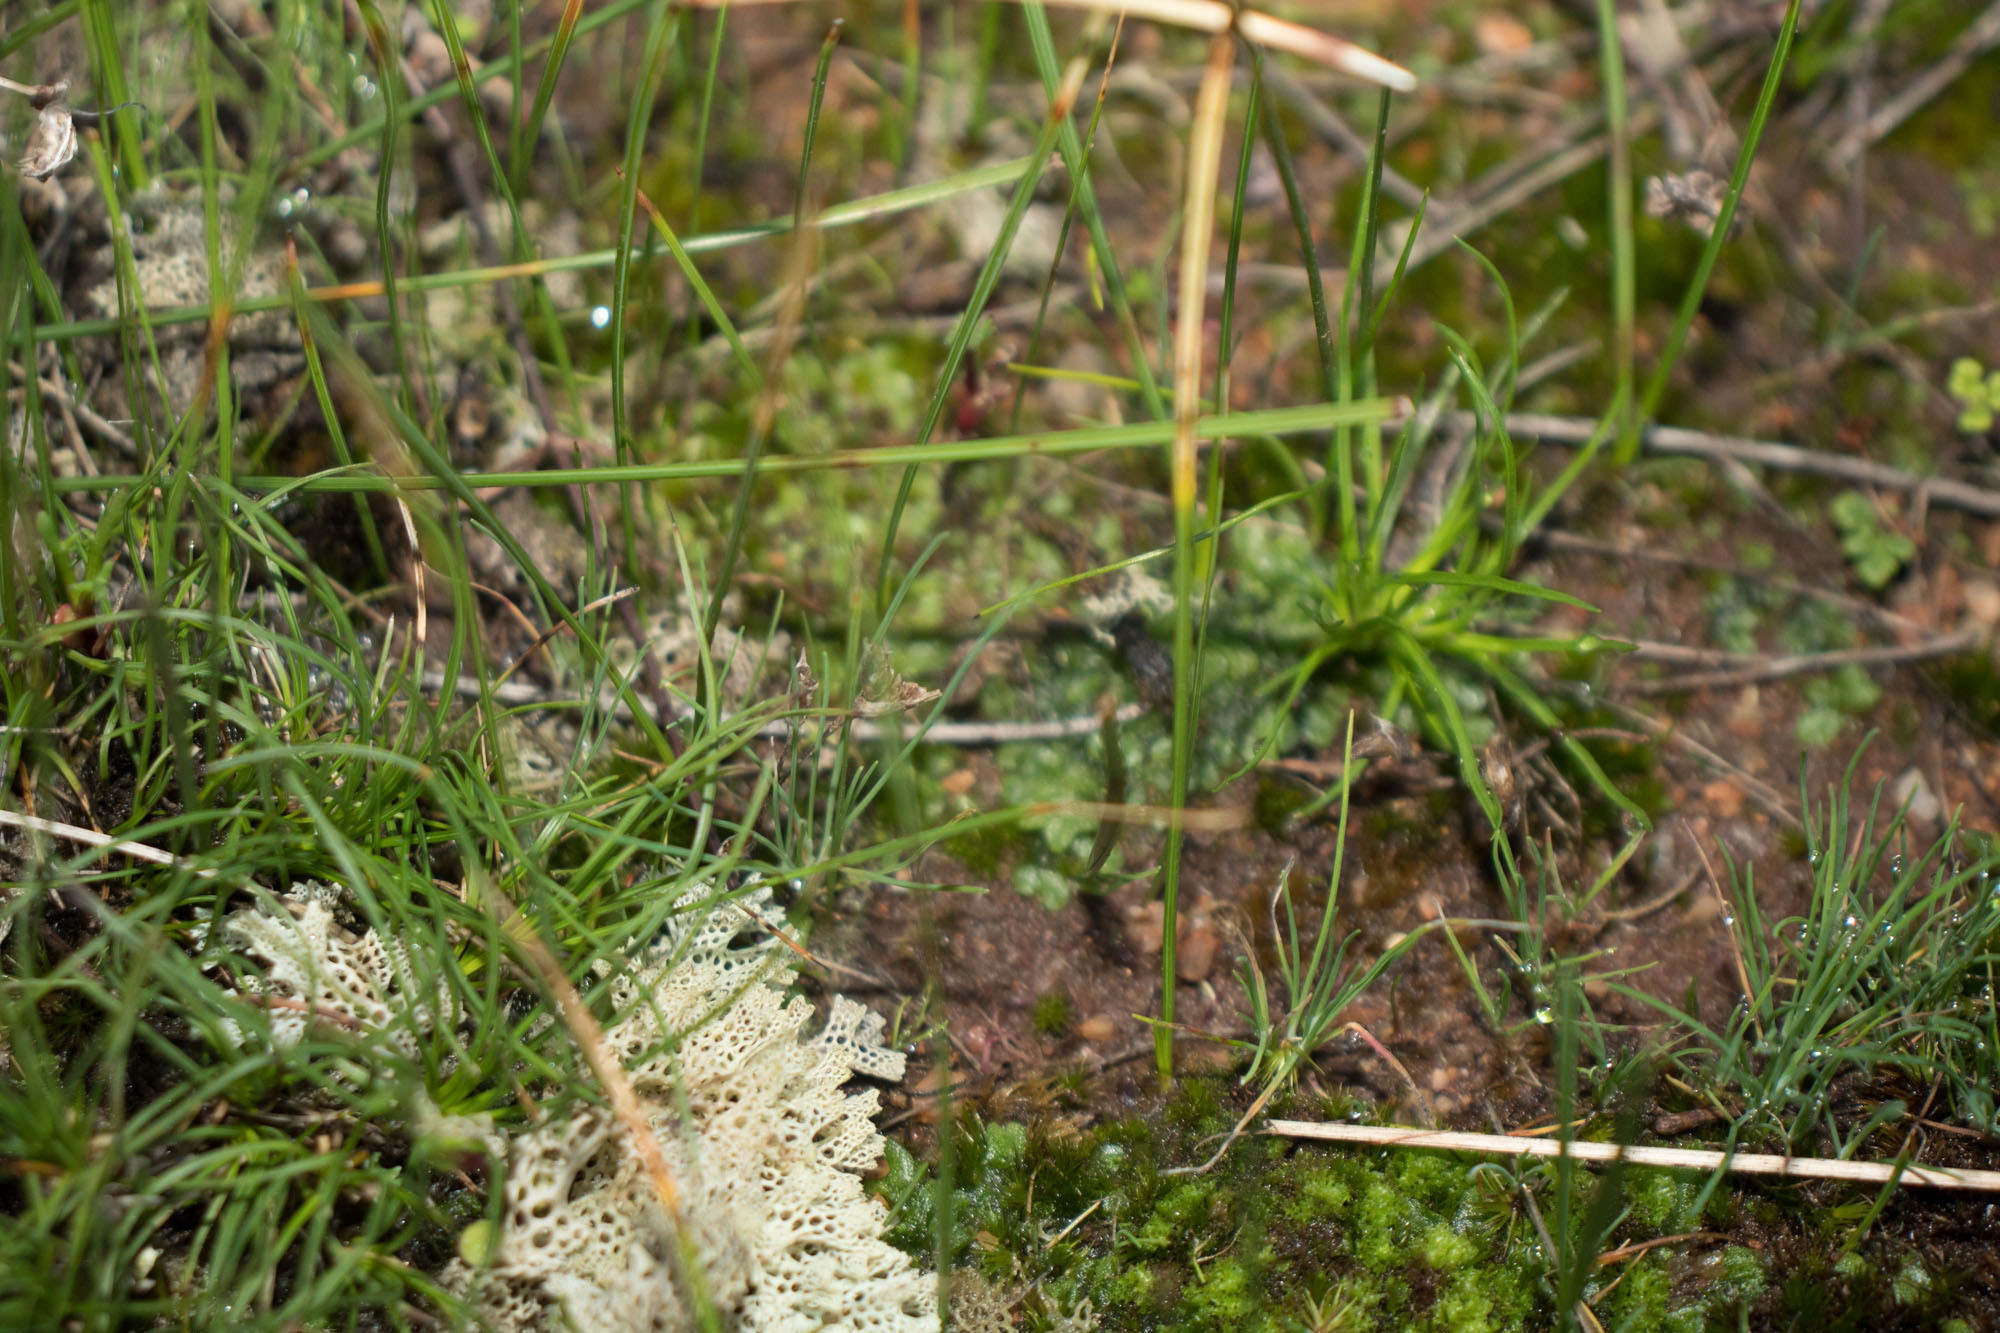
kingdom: Fungi
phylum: Ascomycota
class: Lecanoromycetes
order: Lecanorales
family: Cladoniaceae
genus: Pulchrocladia
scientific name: Pulchrocladia ferdinandii
